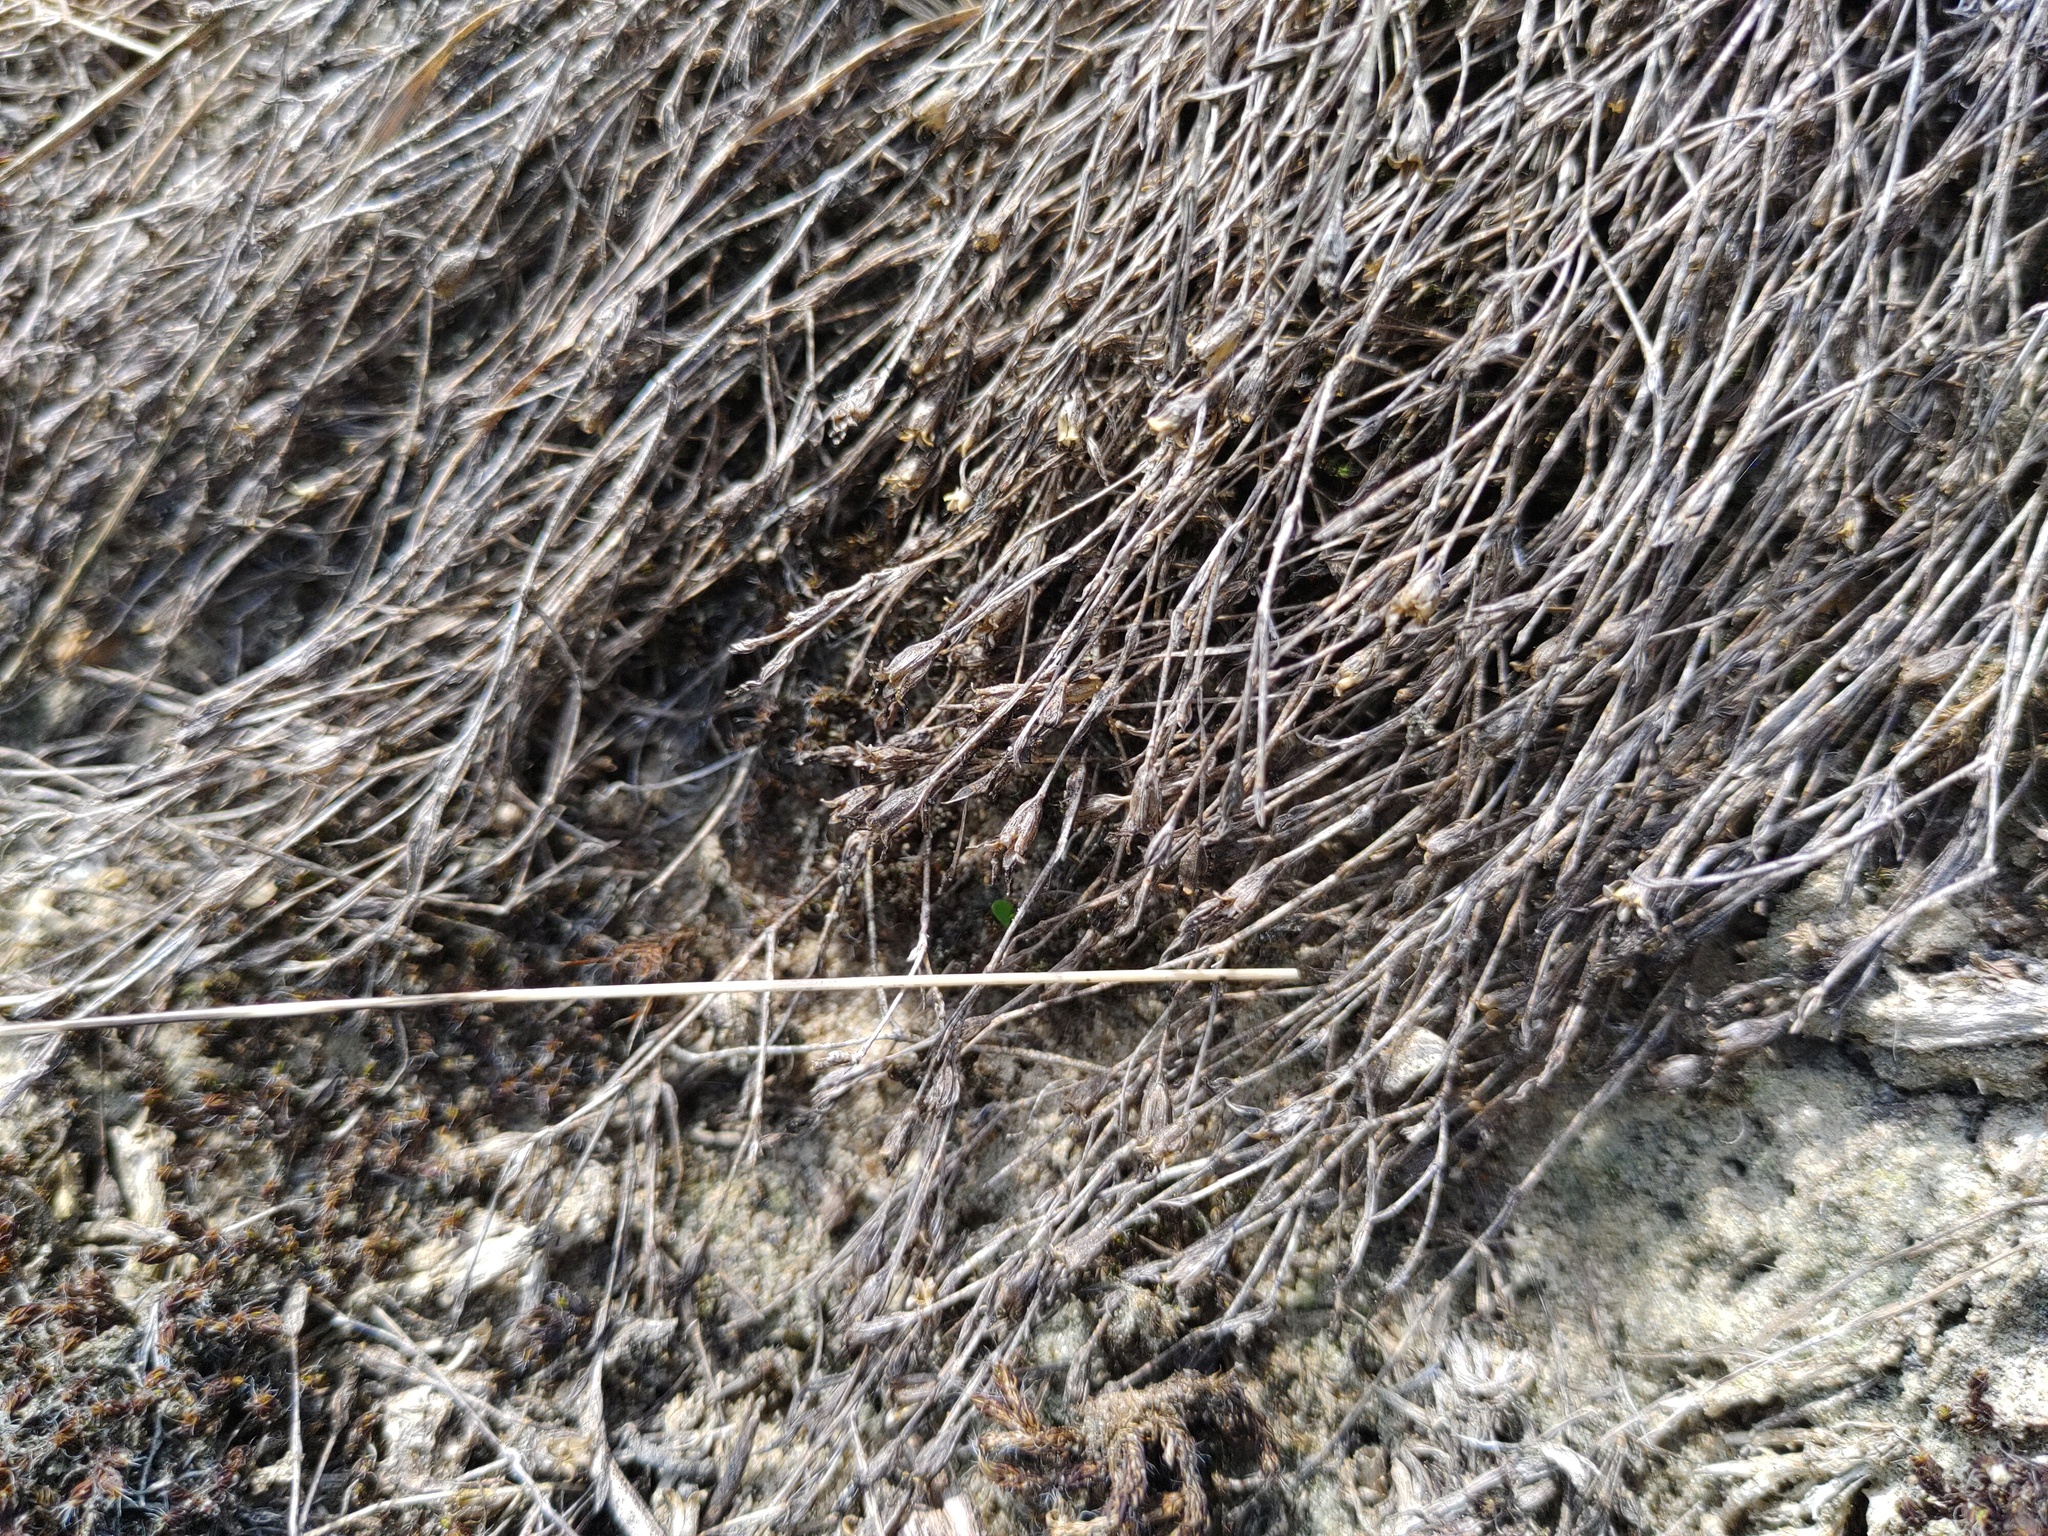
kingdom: Plantae
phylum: Tracheophyta
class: Magnoliopsida
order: Caryophyllales
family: Caryophyllaceae
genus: Petrorhagia
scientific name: Petrorhagia saxifraga
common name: Tunicflower
